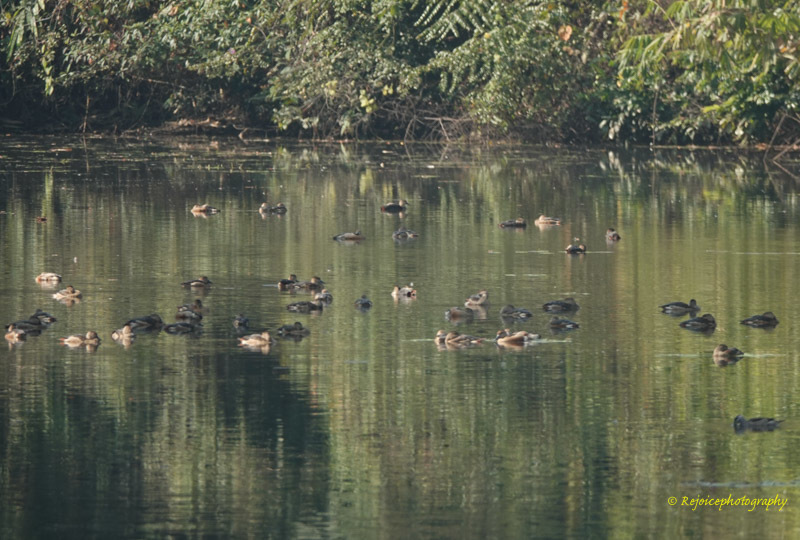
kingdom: Animalia
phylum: Chordata
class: Aves
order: Anseriformes
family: Anatidae
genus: Dendrocygna
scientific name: Dendrocygna javanica
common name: Lesser whistling-duck
